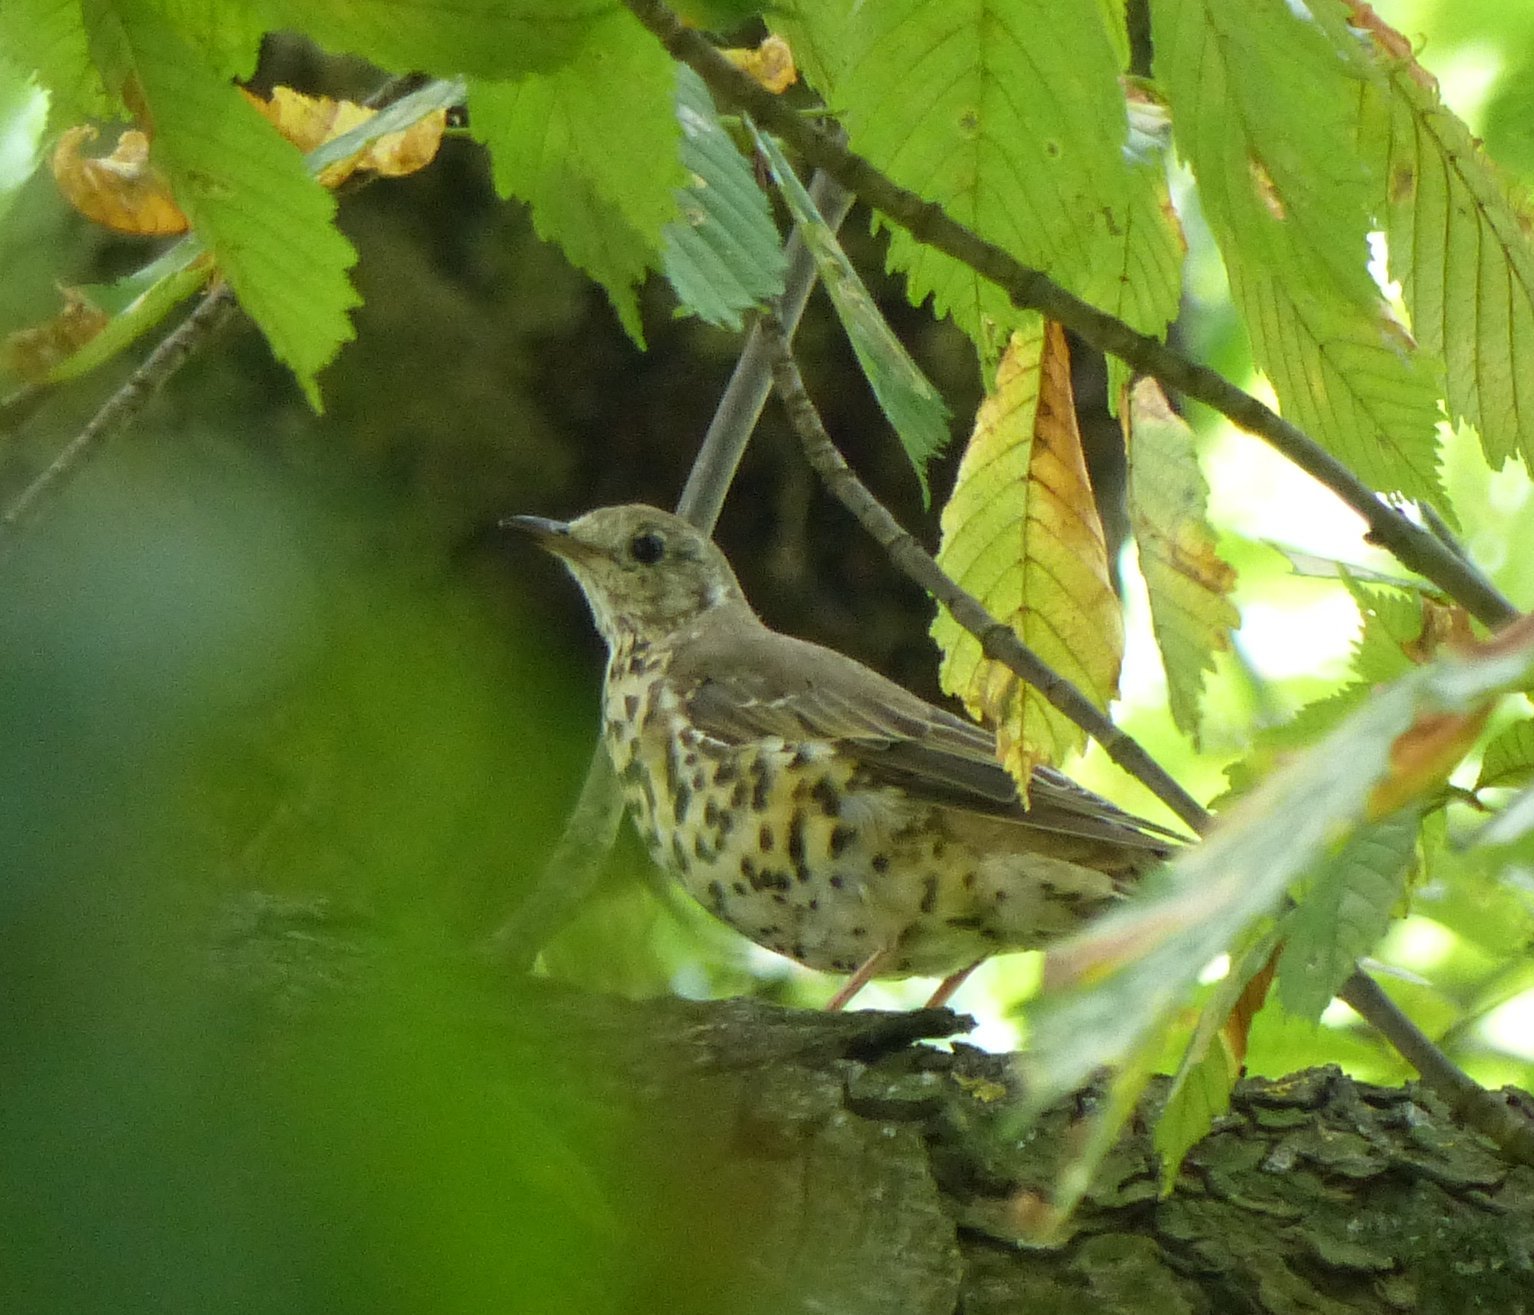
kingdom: Animalia
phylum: Chordata
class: Aves
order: Passeriformes
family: Turdidae
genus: Turdus
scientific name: Turdus viscivorus
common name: Mistle thrush
